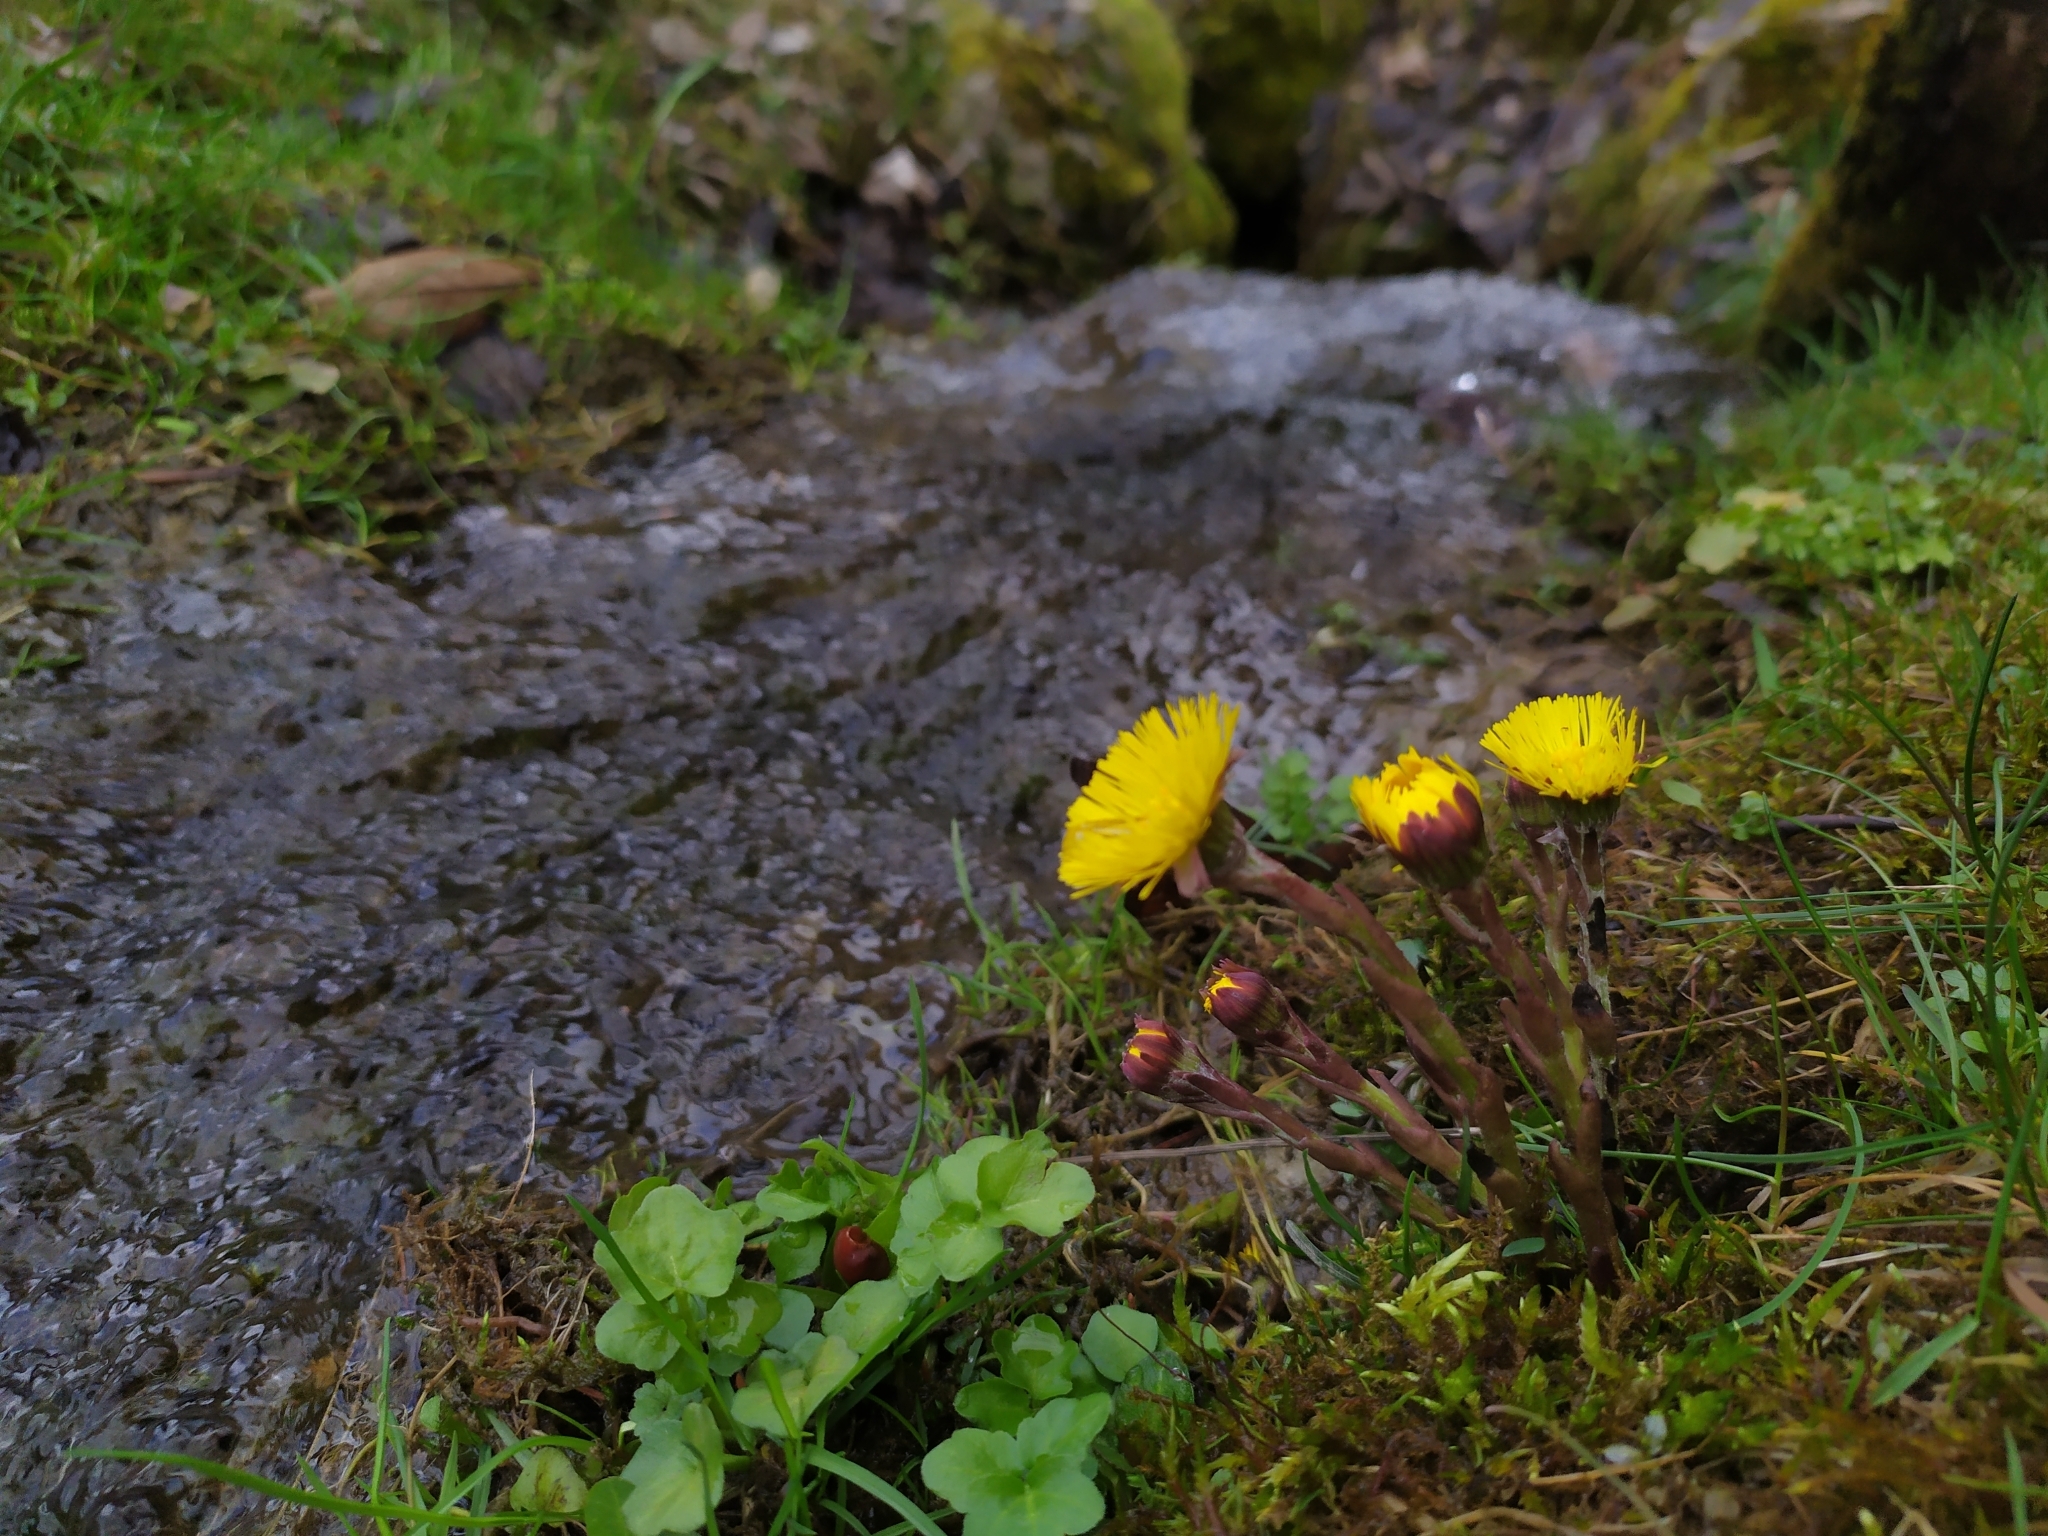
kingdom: Plantae
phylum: Tracheophyta
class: Magnoliopsida
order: Asterales
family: Asteraceae
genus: Tussilago
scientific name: Tussilago farfara
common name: Coltsfoot
